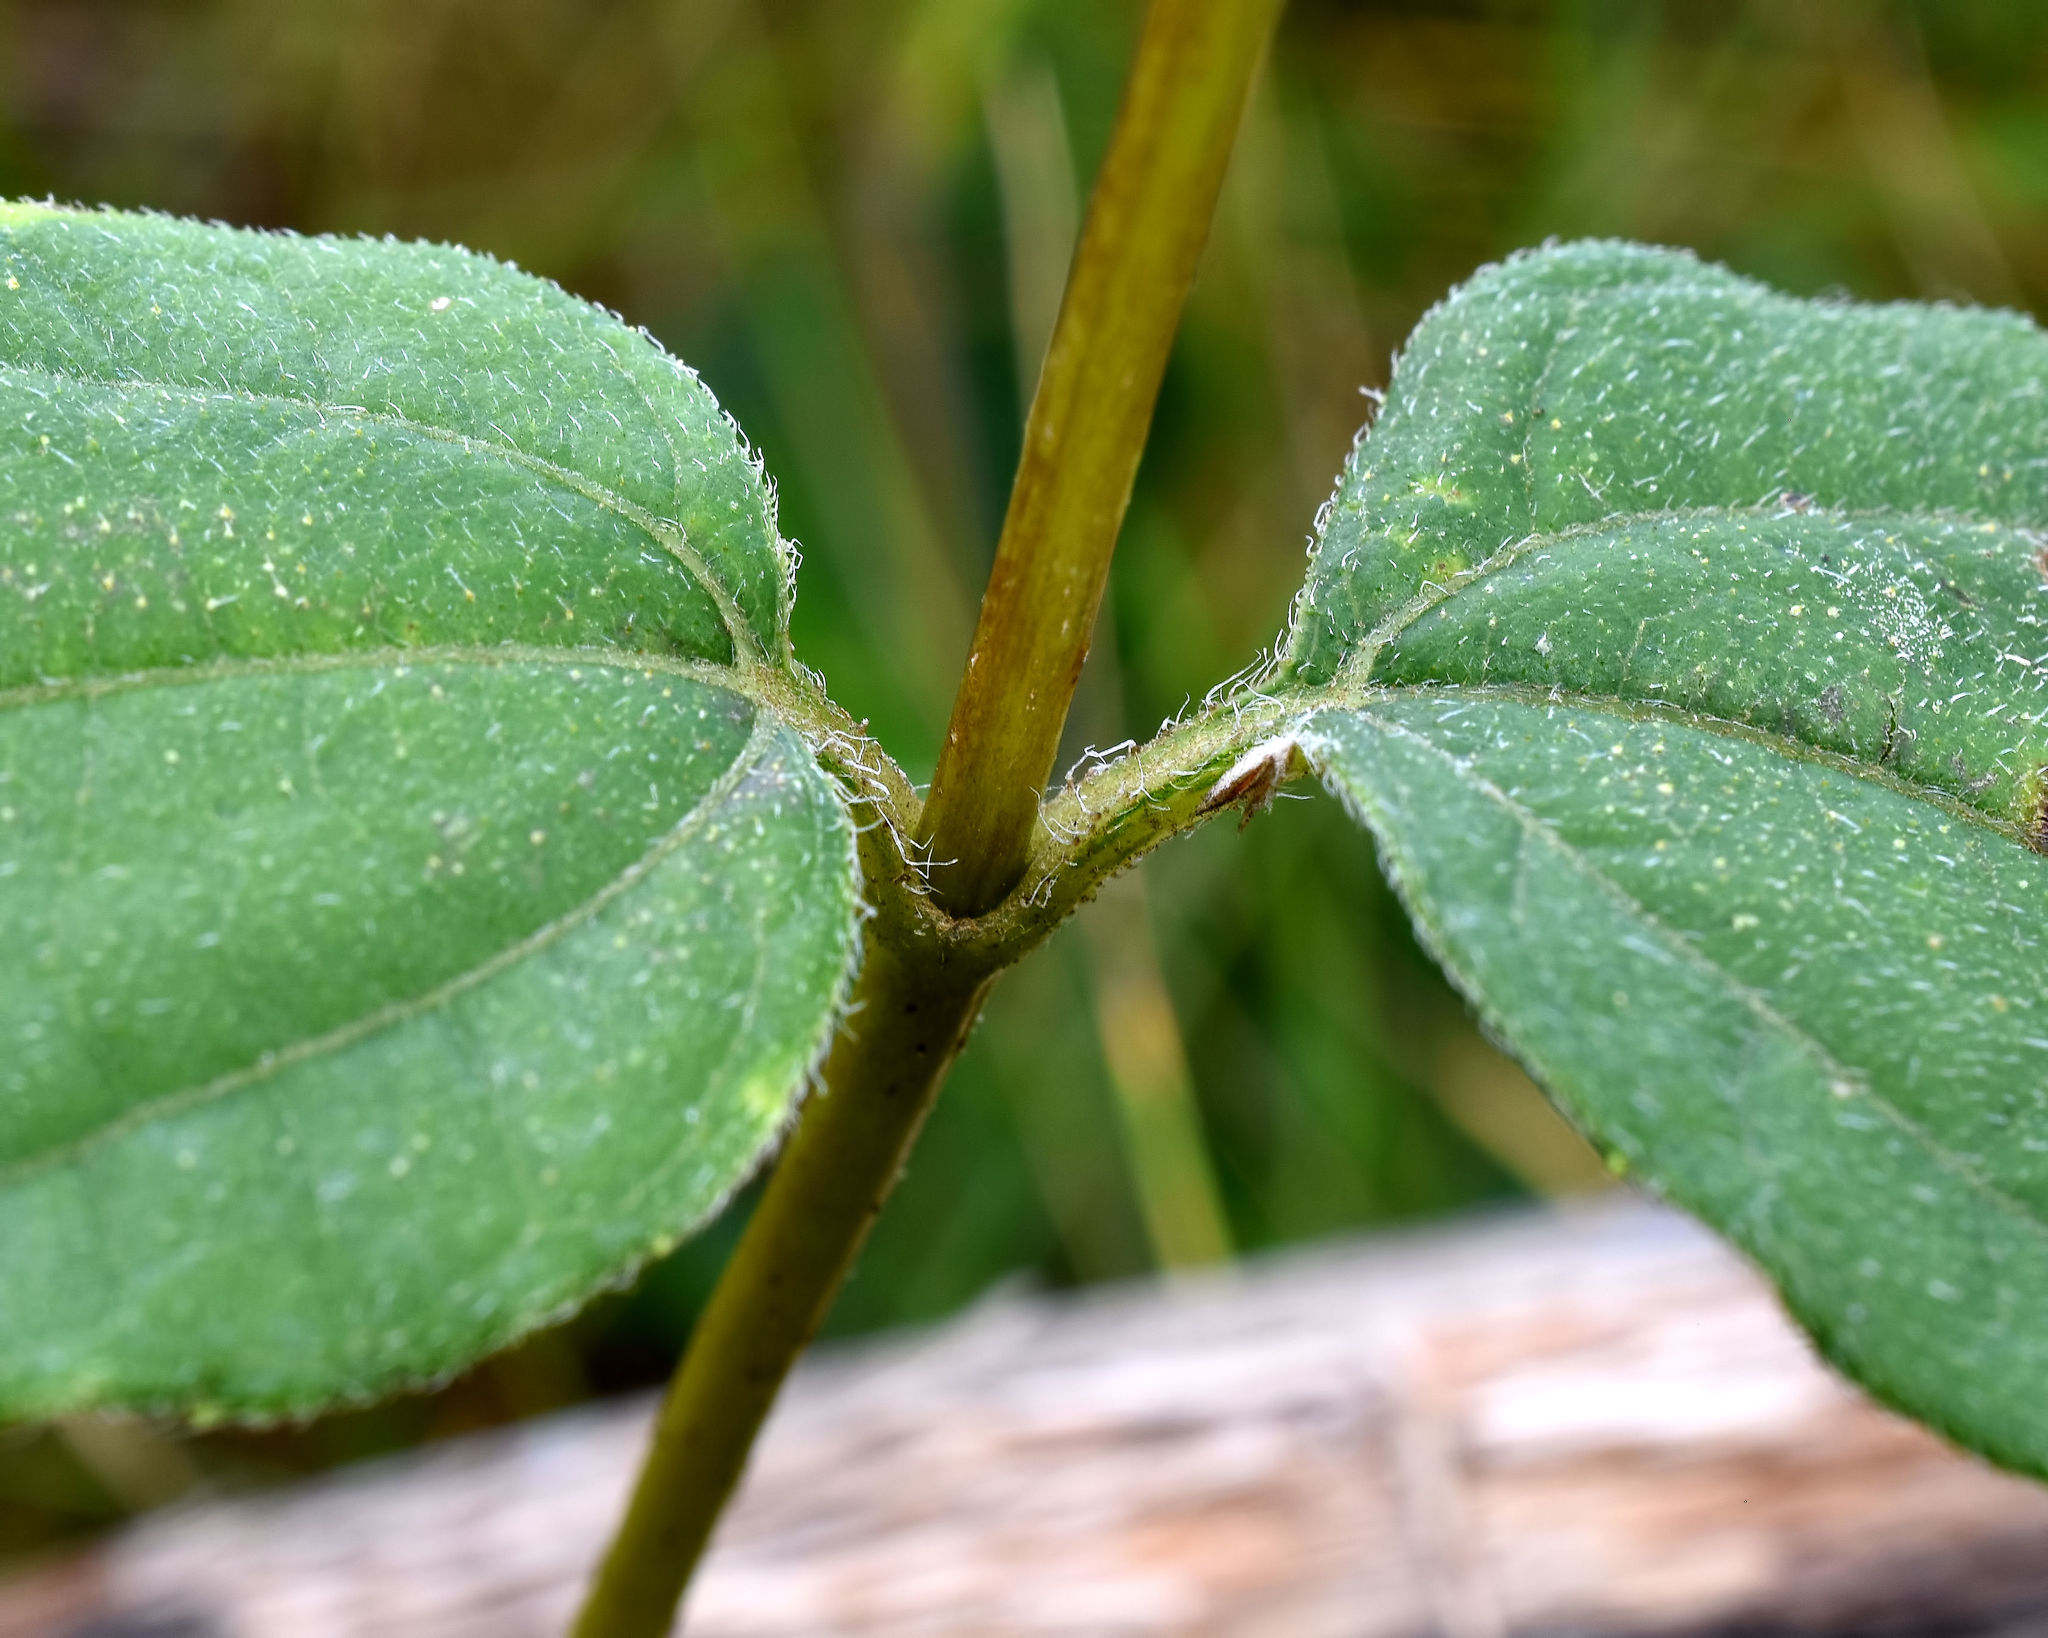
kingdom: Plantae
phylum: Tracheophyta
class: Magnoliopsida
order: Asterales
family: Asteraceae
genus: Helianthus
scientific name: Helianthus strumosus
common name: Pale-leaved sunflower
